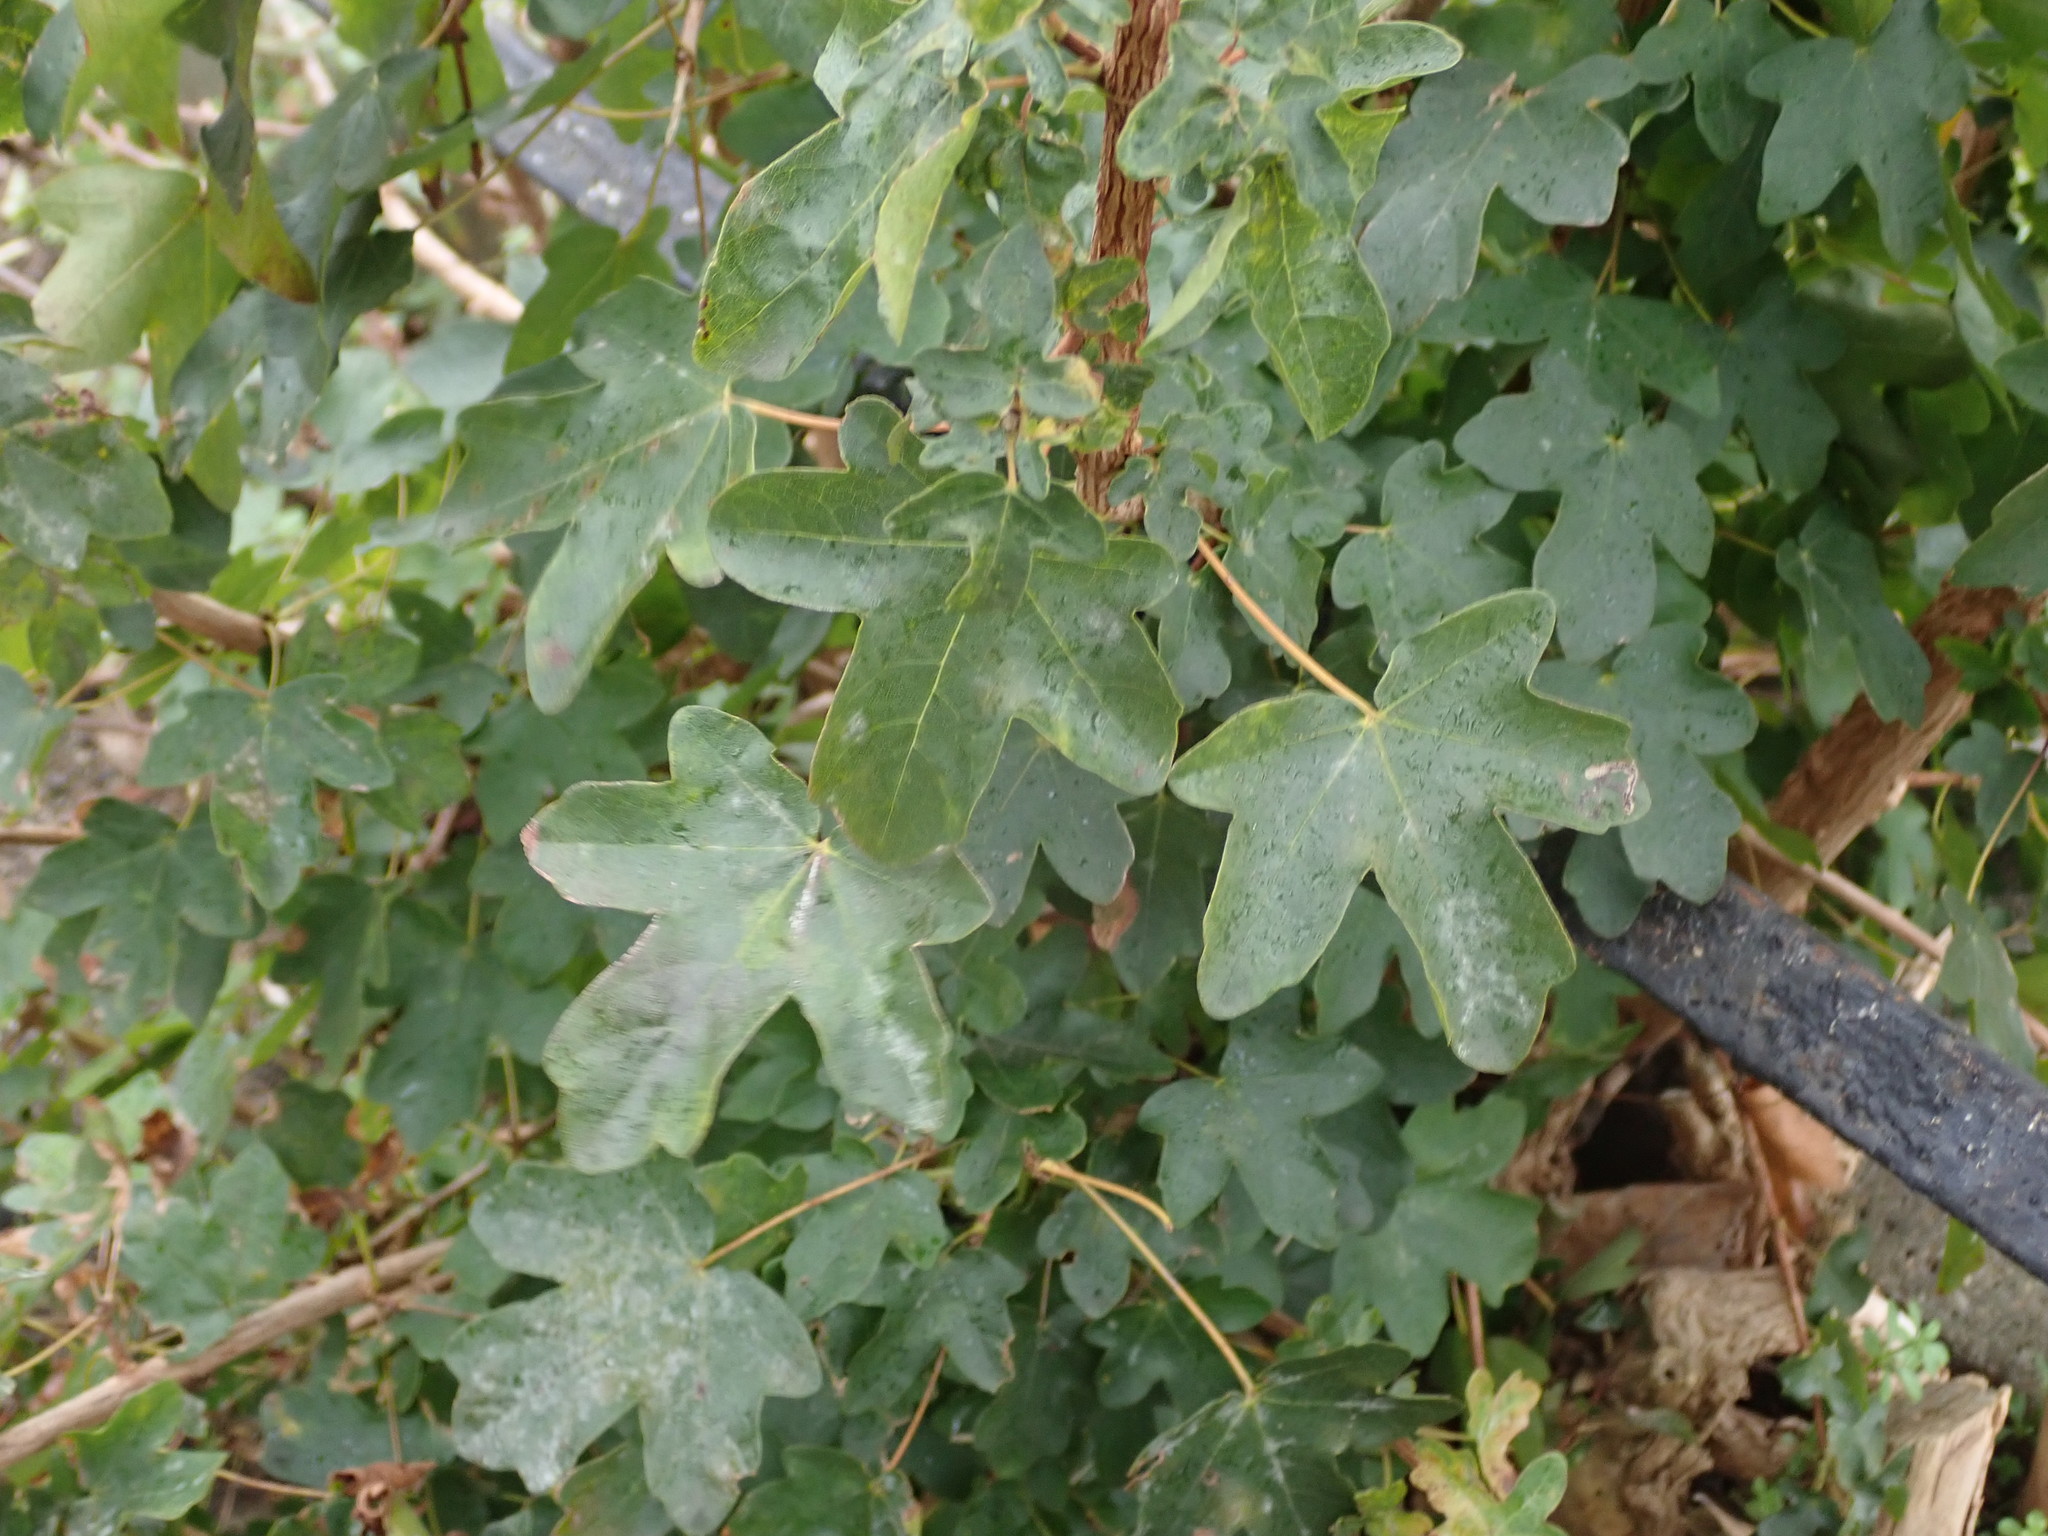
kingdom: Plantae
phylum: Tracheophyta
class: Magnoliopsida
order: Sapindales
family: Sapindaceae
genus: Acer
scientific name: Acer campestre
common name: Field maple
